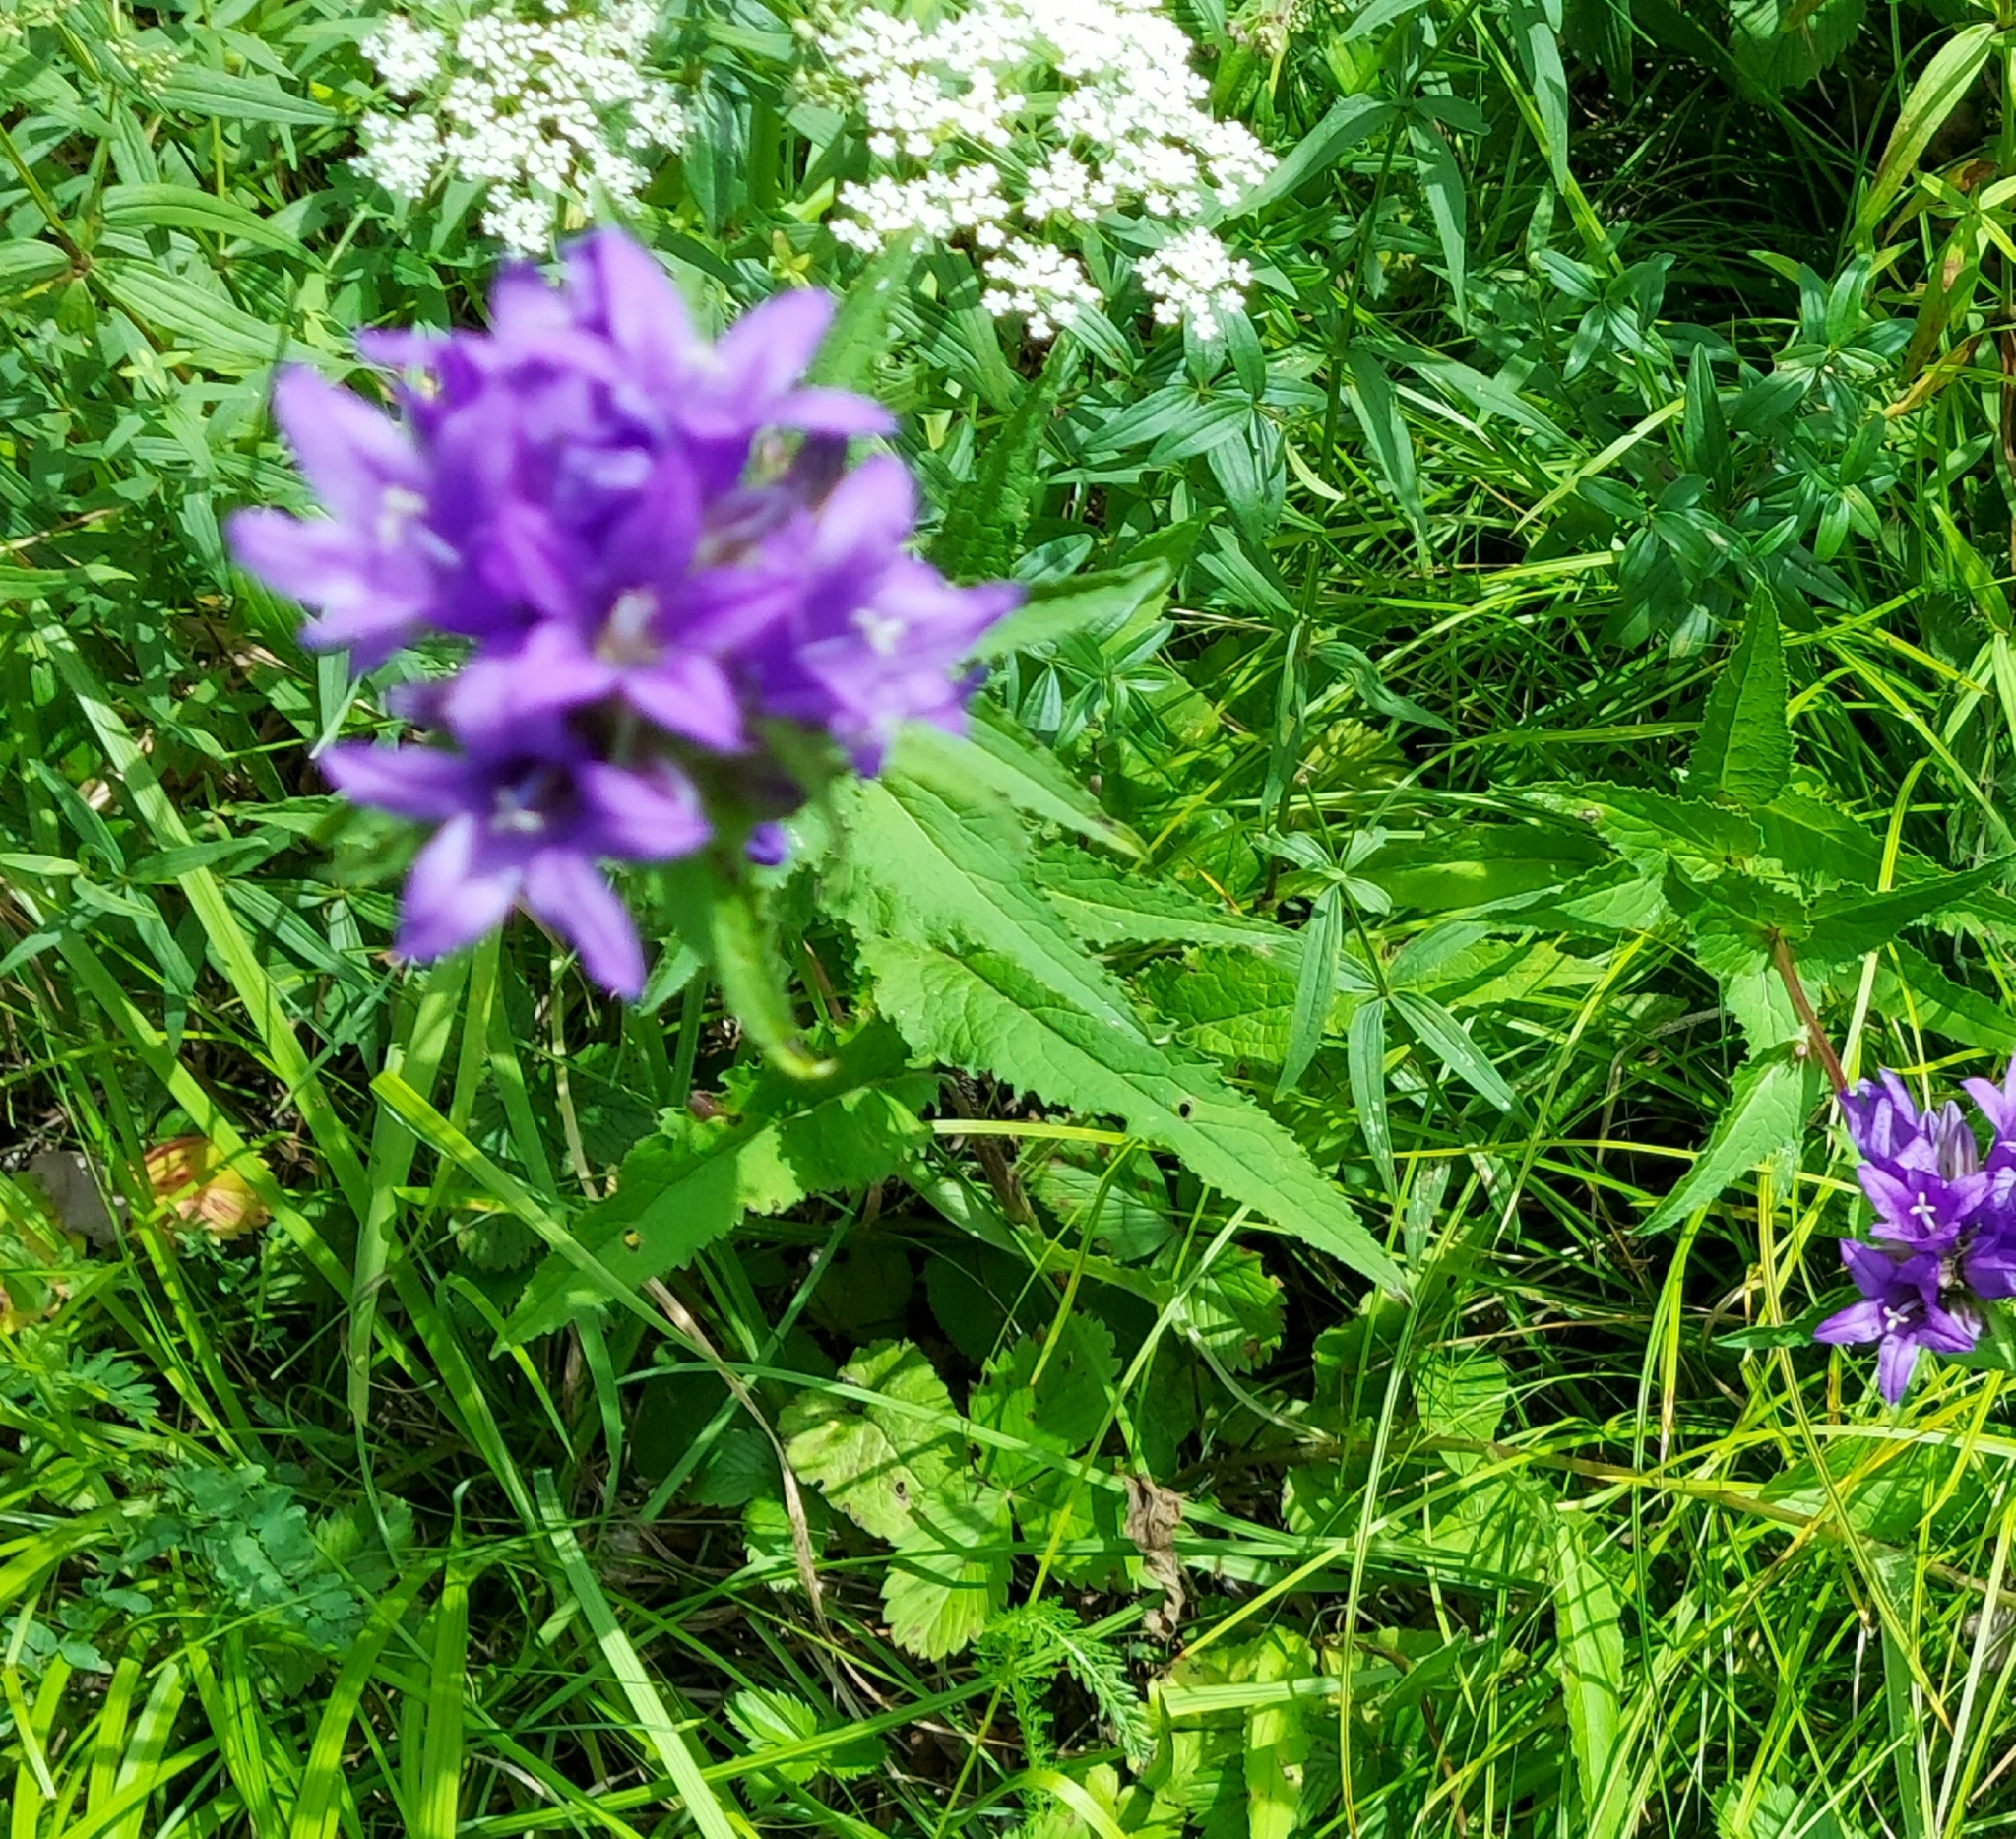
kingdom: Plantae
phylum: Tracheophyta
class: Magnoliopsida
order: Asterales
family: Campanulaceae
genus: Campanula
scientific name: Campanula glomerata
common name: Clustered bellflower
